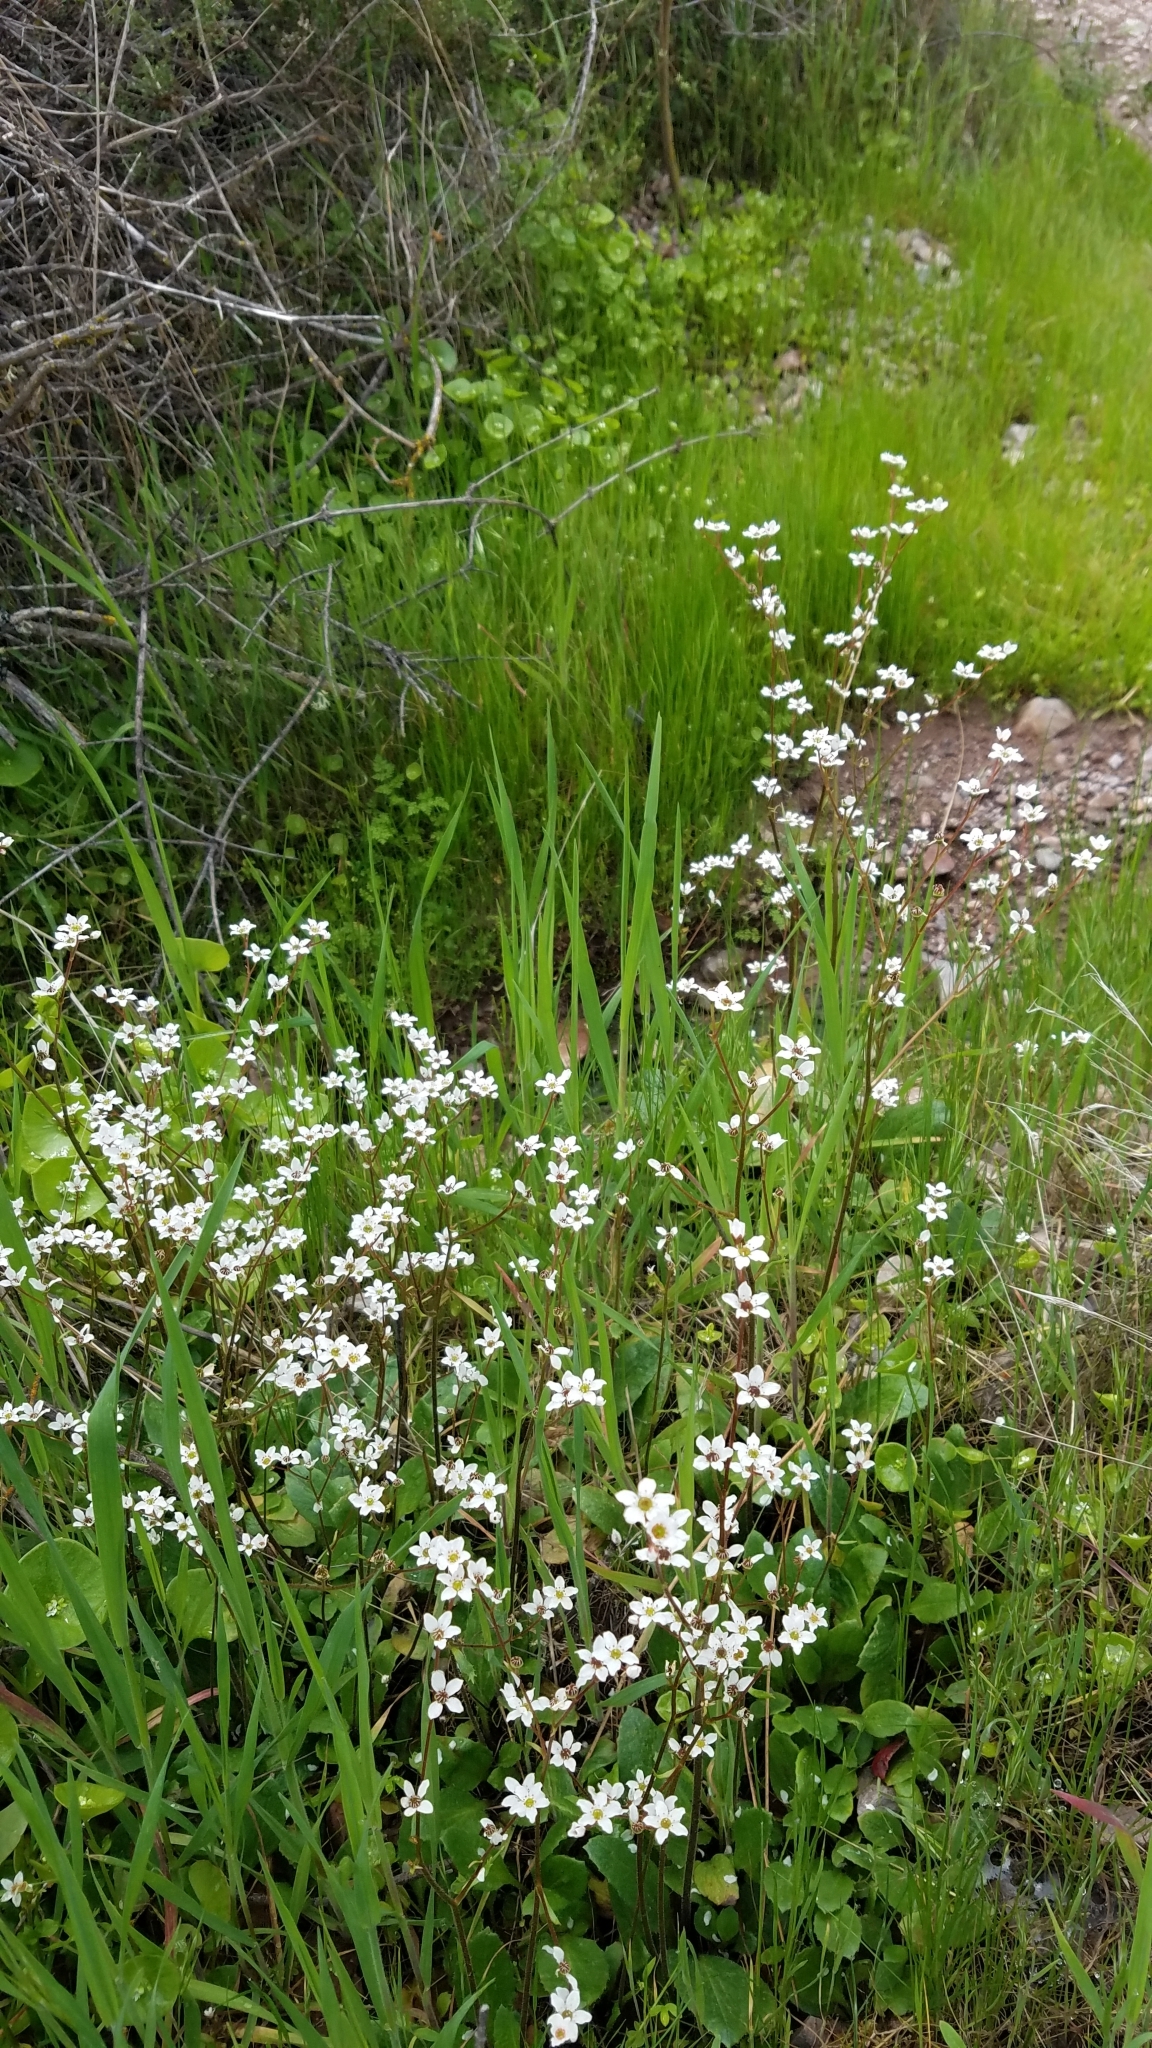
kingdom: Plantae
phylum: Tracheophyta
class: Magnoliopsida
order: Saxifragales
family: Saxifragaceae
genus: Micranthes
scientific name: Micranthes californica
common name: California saxifrage
